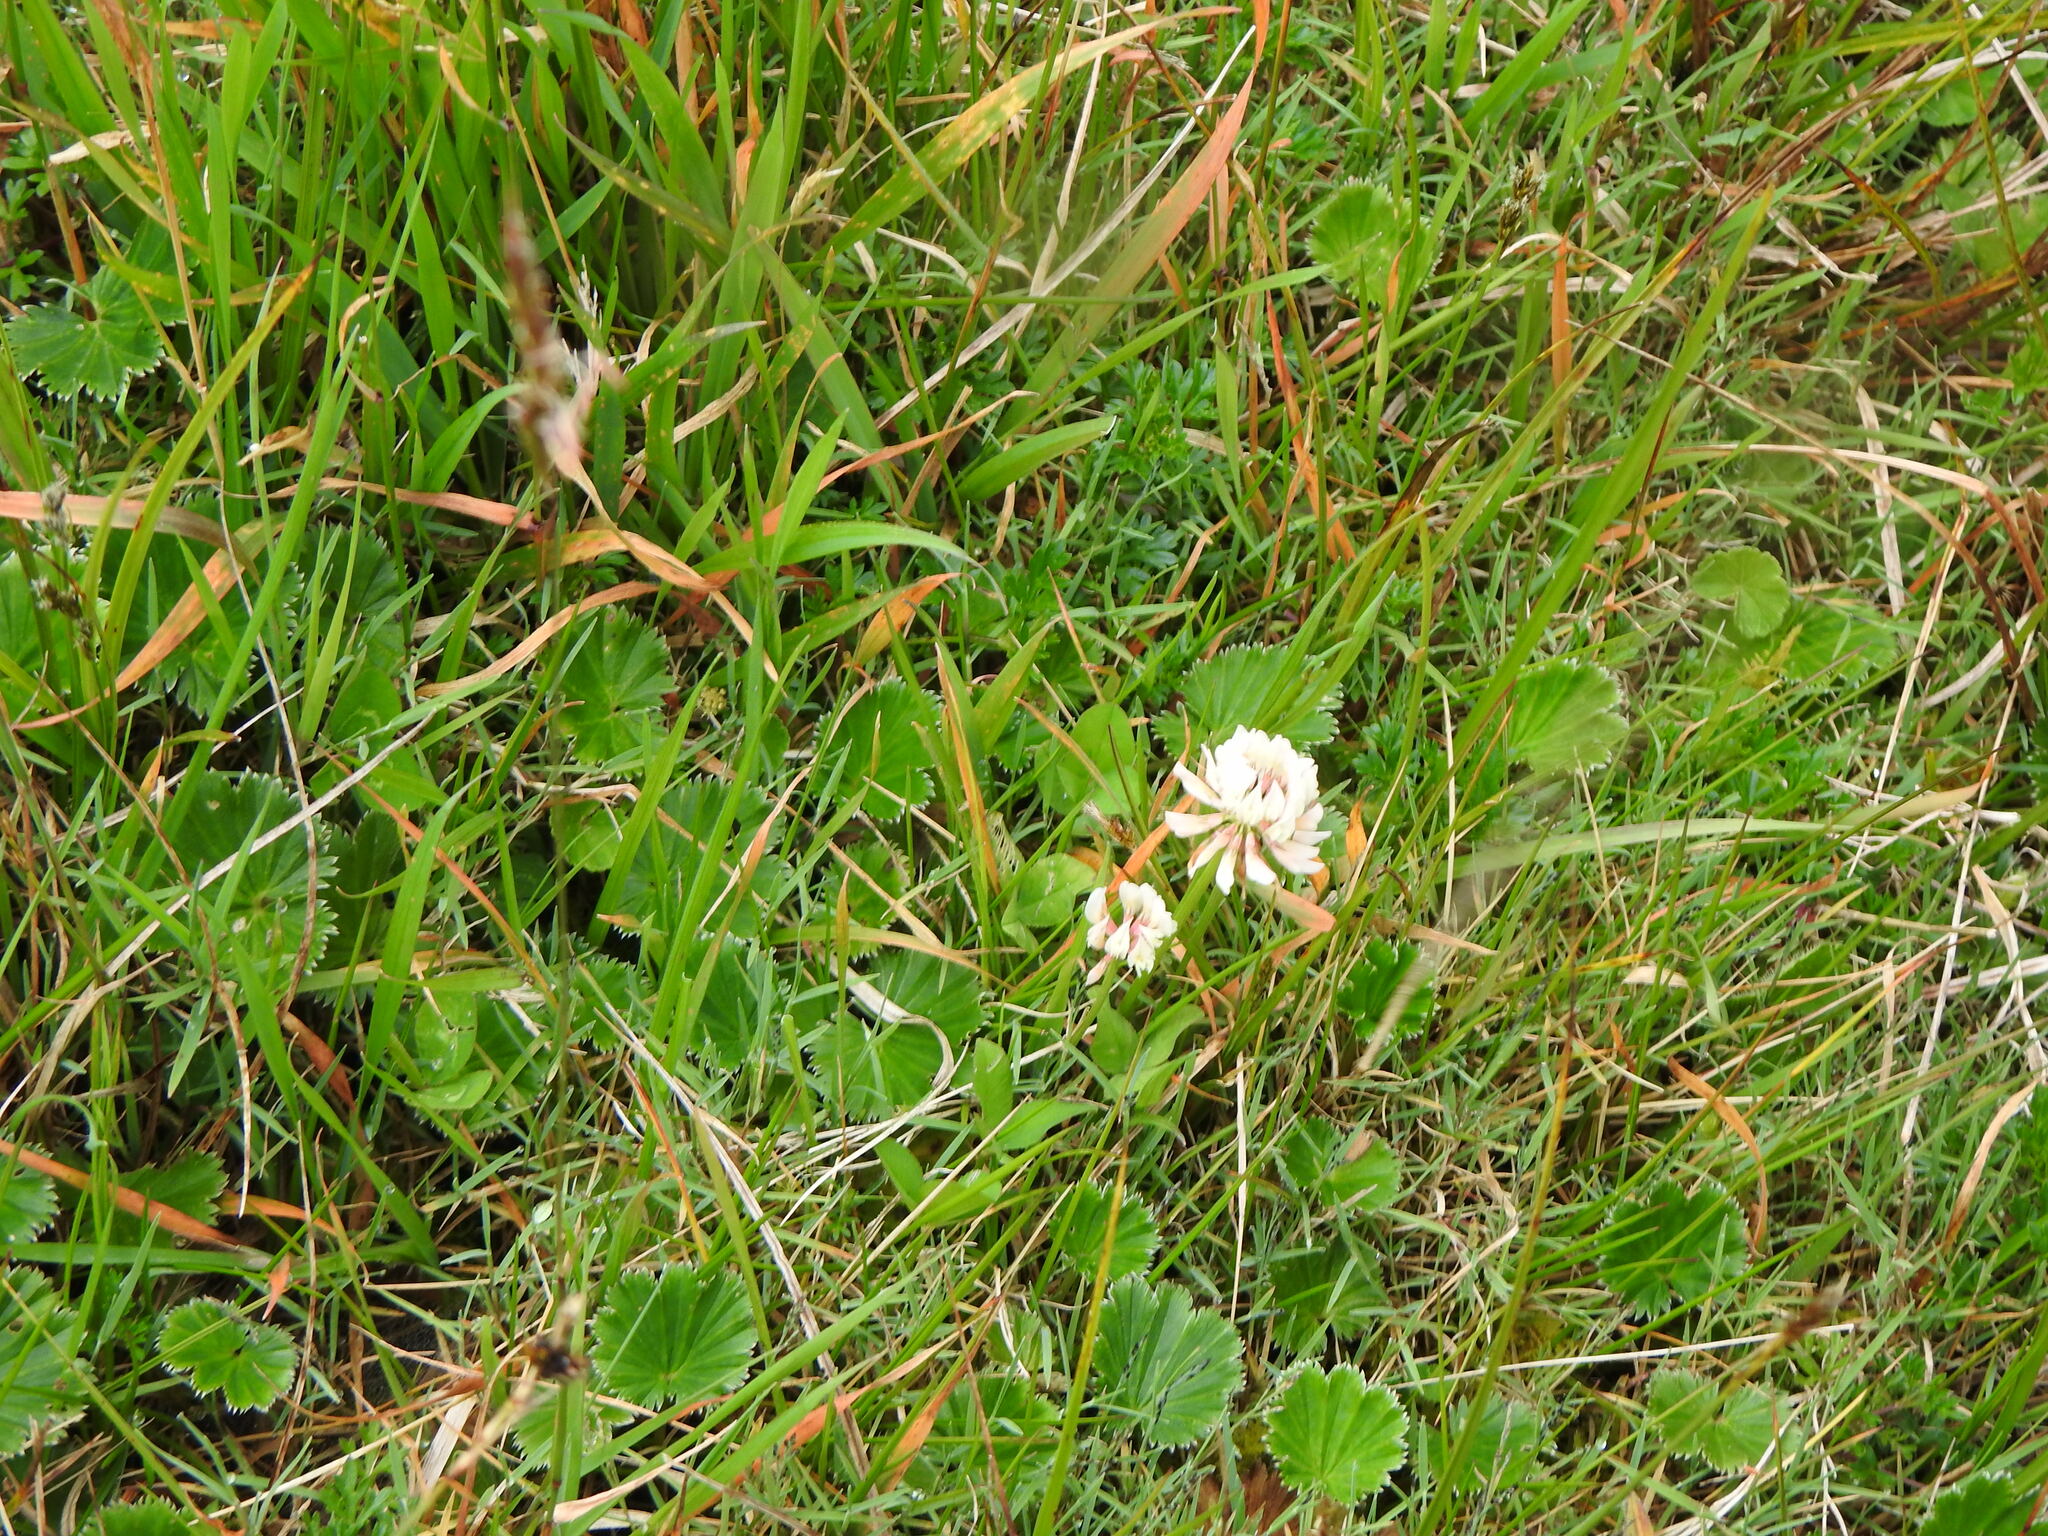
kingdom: Plantae
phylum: Tracheophyta
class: Magnoliopsida
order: Rosales
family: Rosaceae
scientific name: Rosaceae
